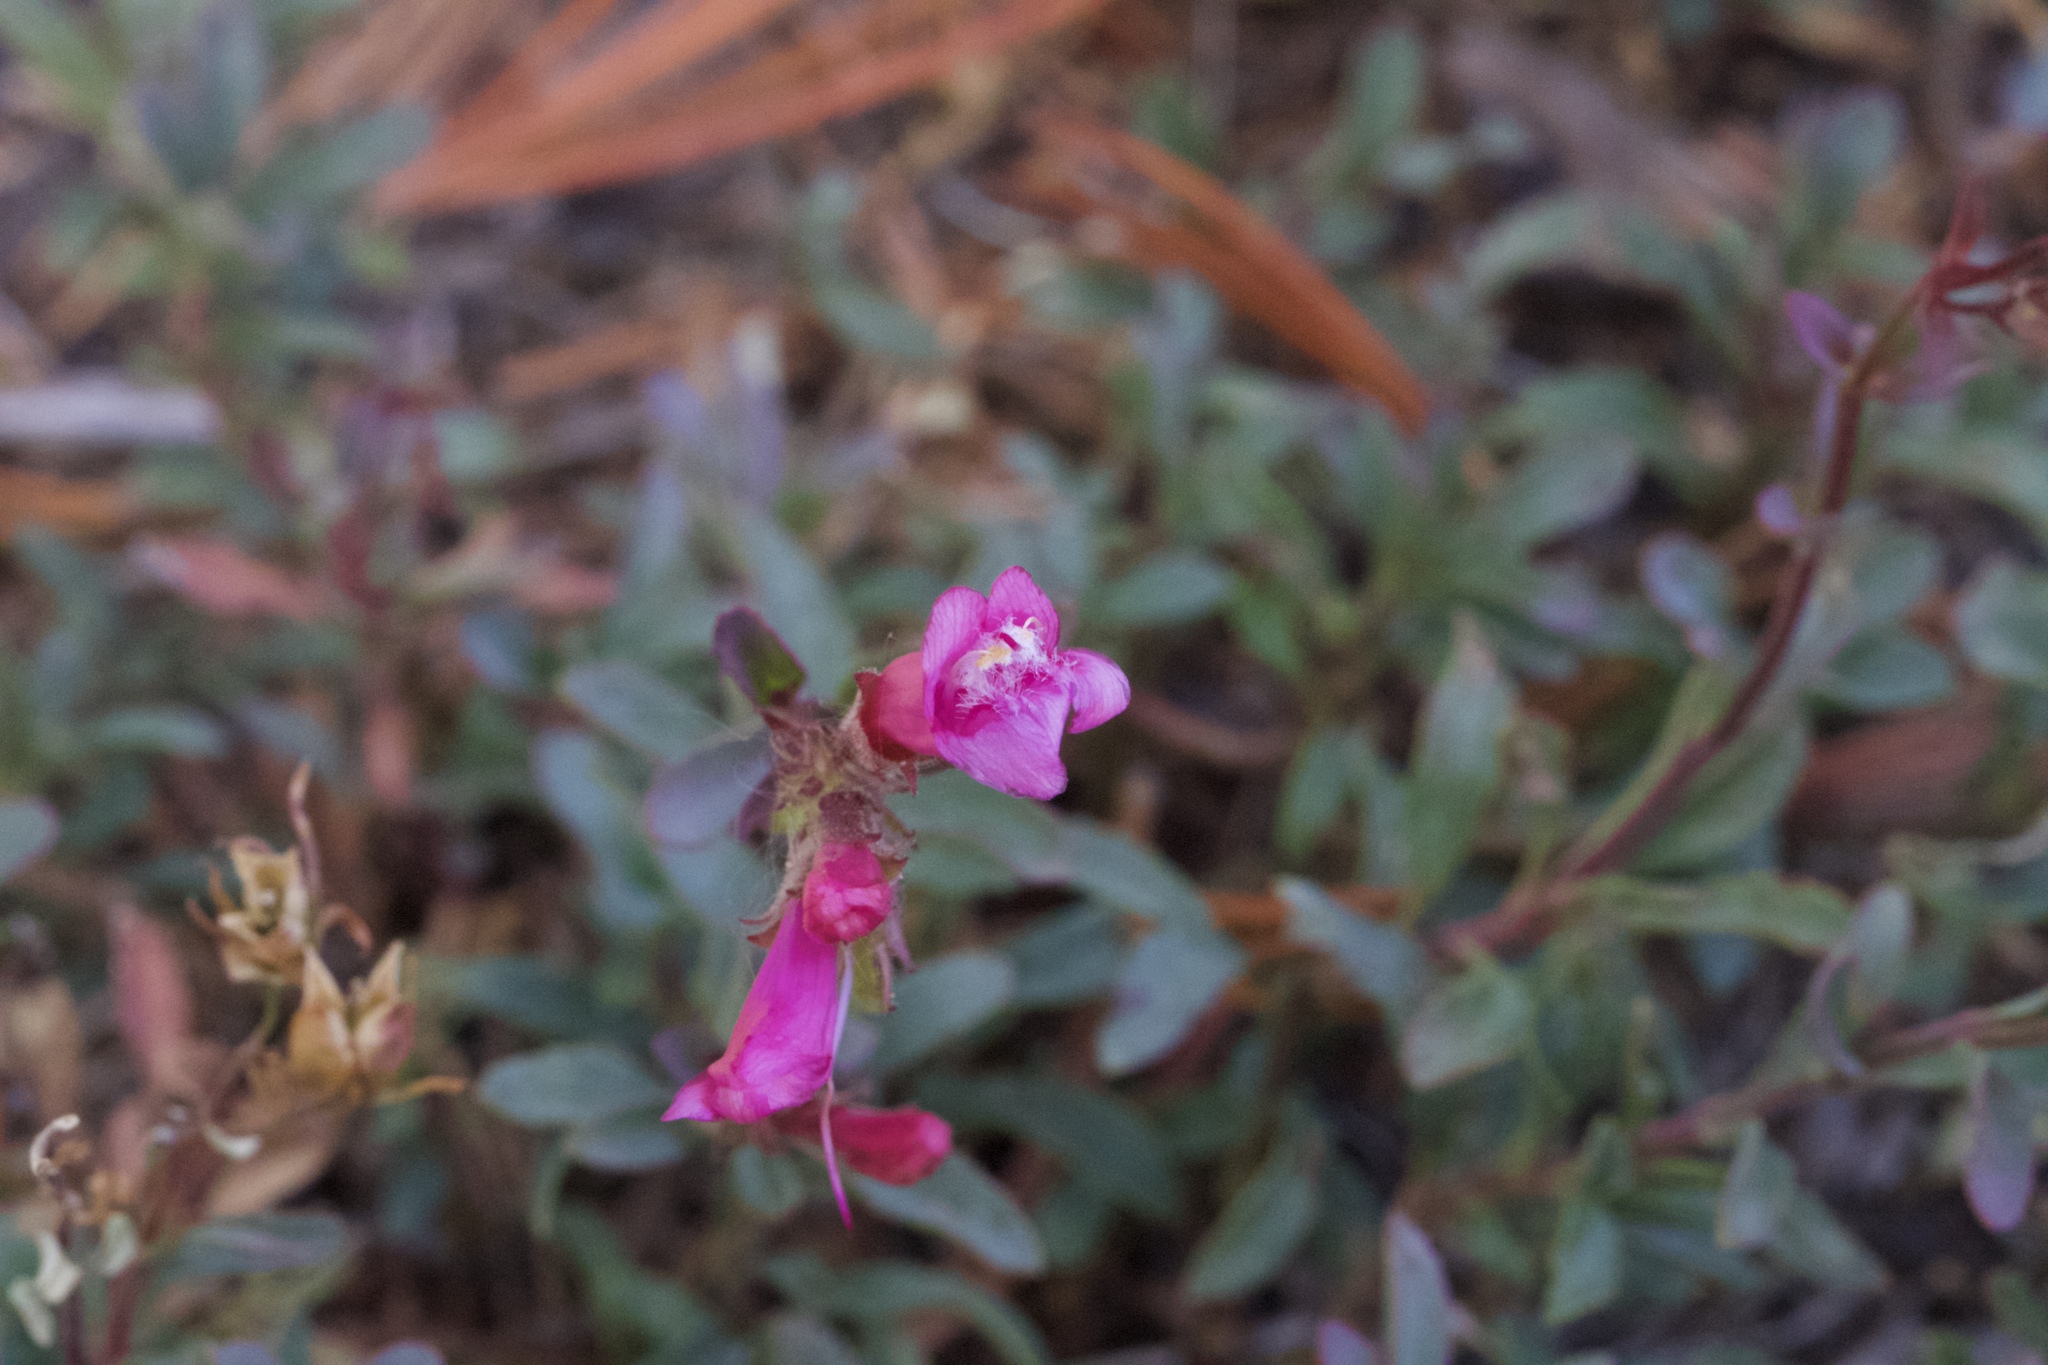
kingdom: Plantae
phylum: Tracheophyta
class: Magnoliopsida
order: Lamiales
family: Plantaginaceae
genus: Penstemon
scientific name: Penstemon newberryi
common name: Mountain-pride
